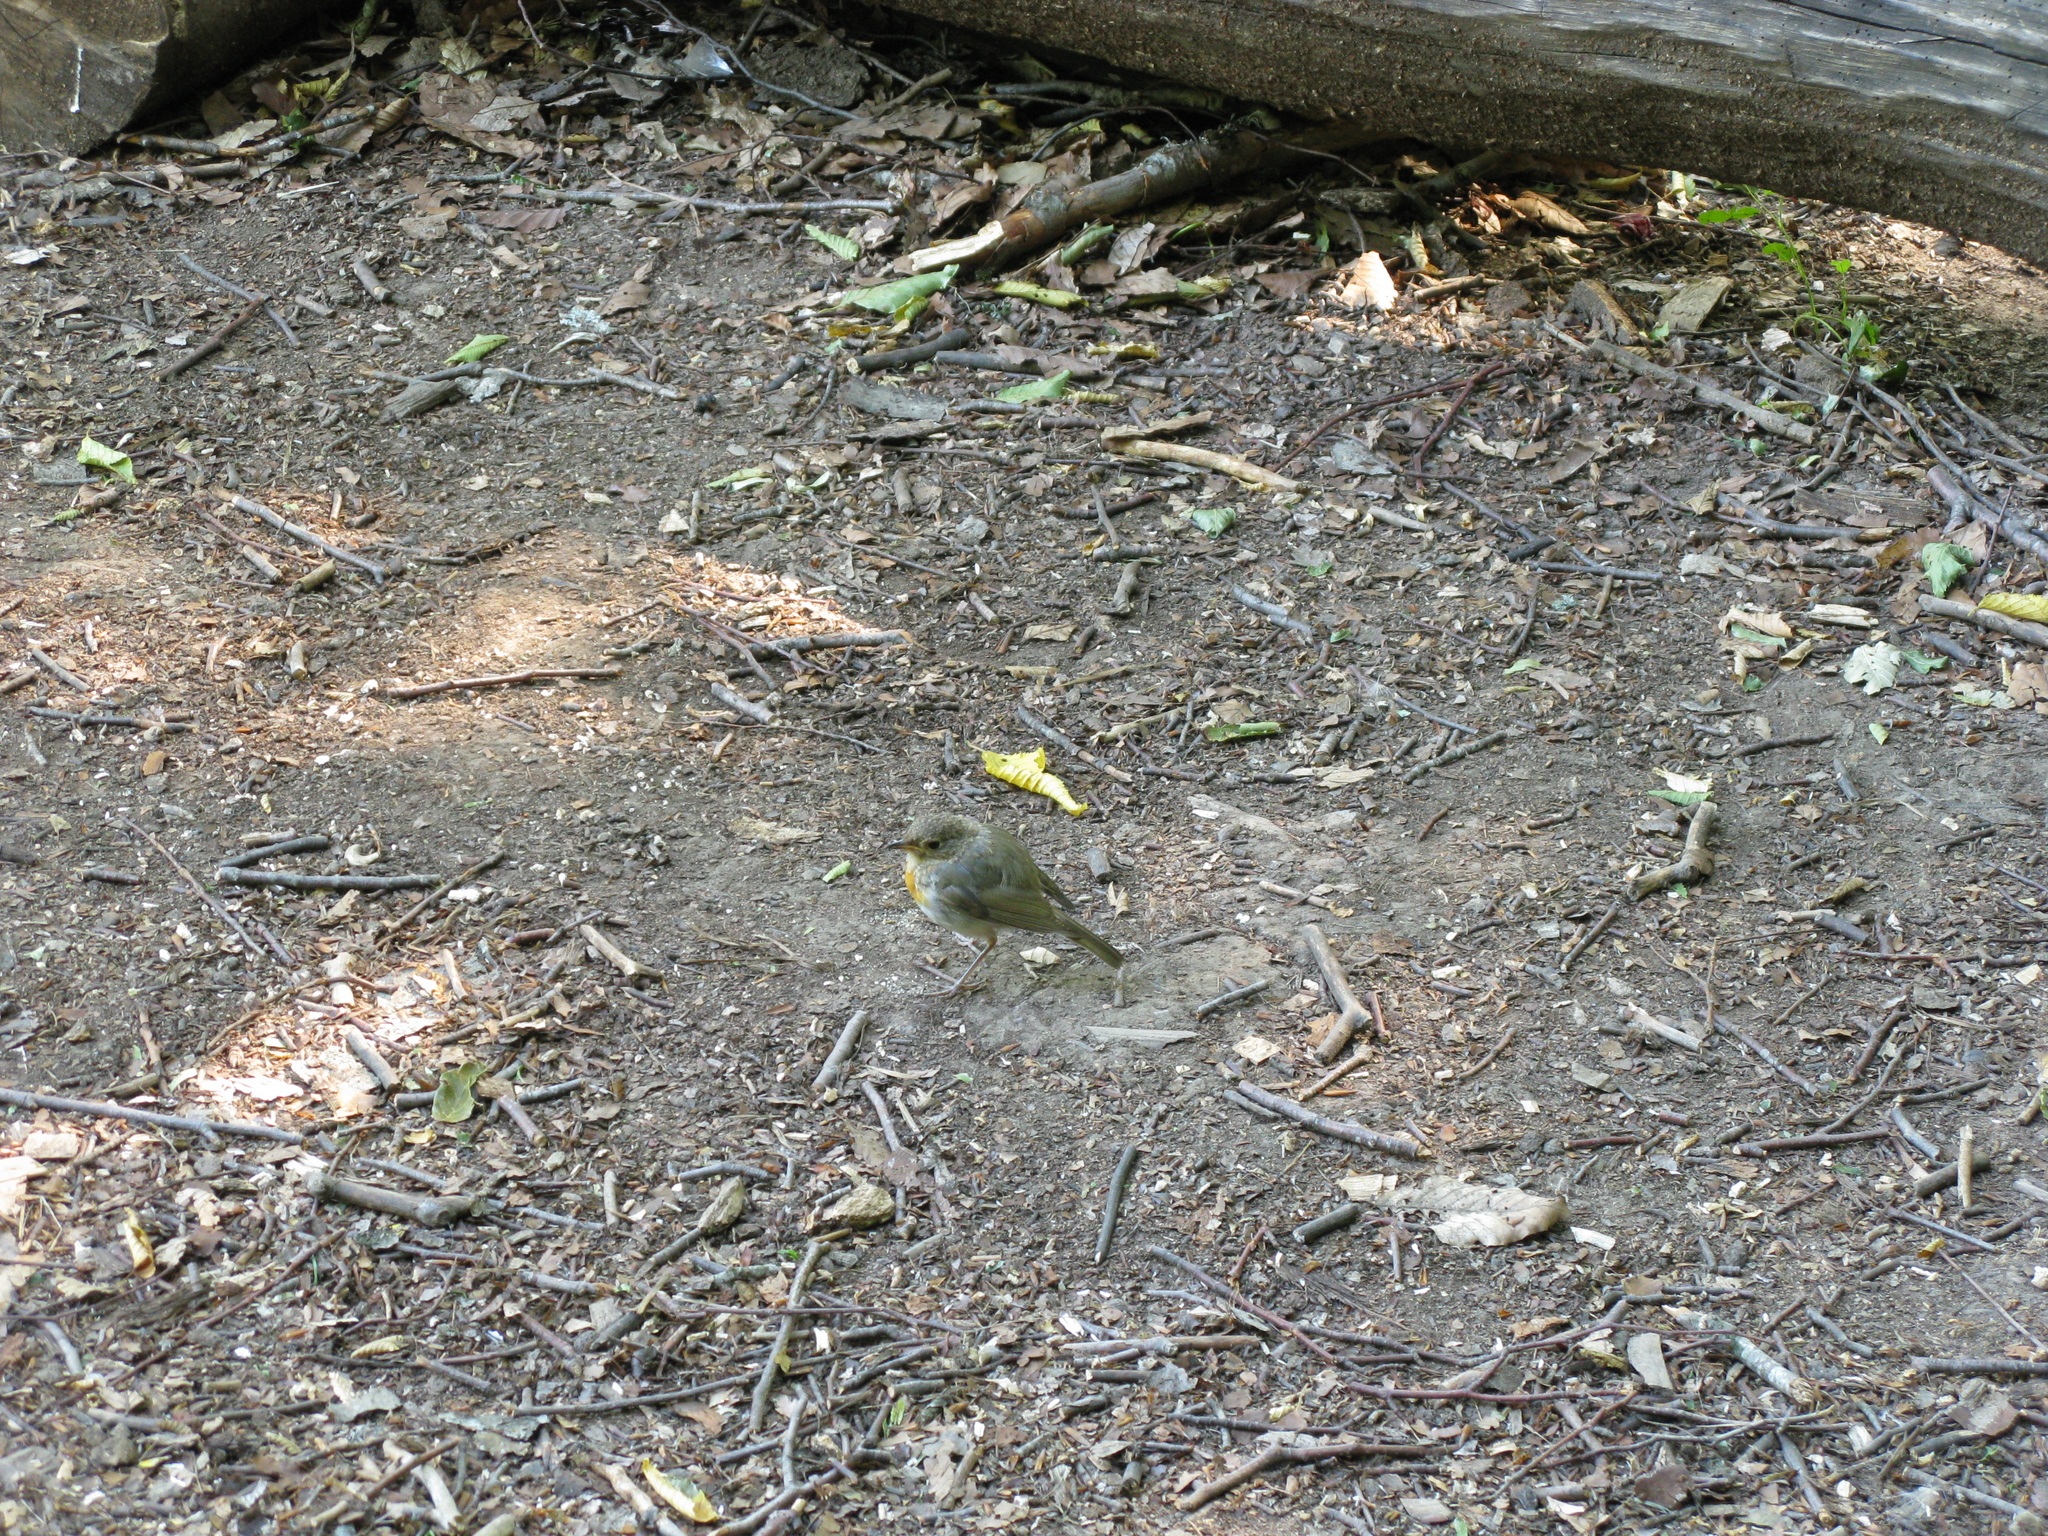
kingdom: Animalia
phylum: Chordata
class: Aves
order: Passeriformes
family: Muscicapidae
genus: Erithacus
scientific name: Erithacus rubecula
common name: European robin
